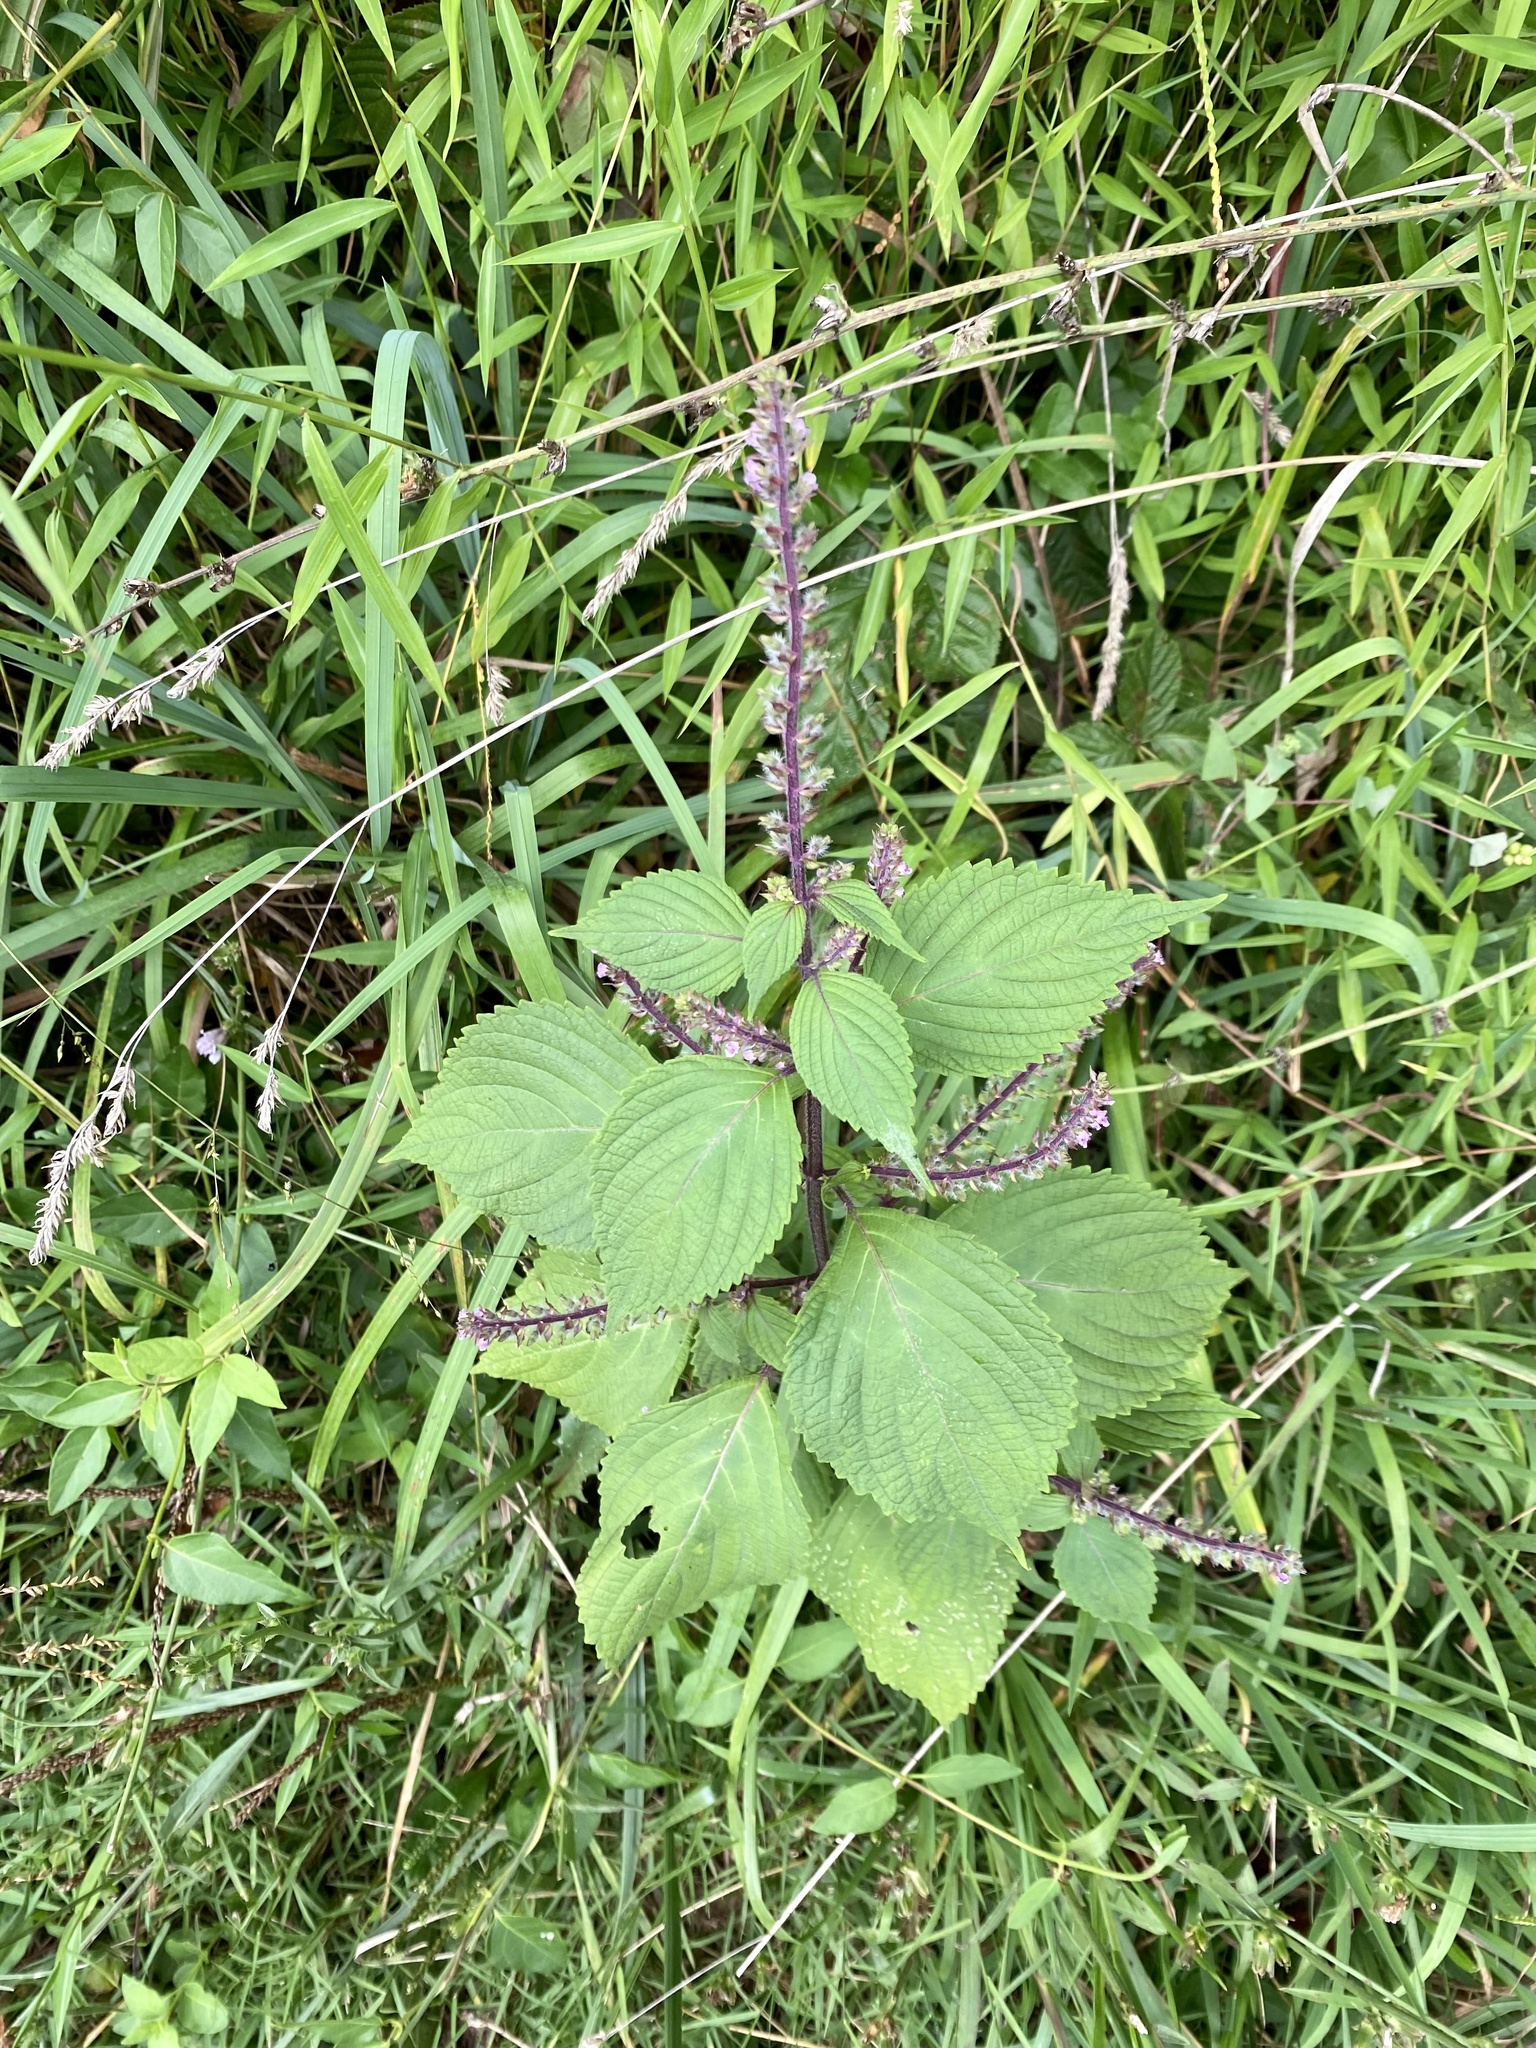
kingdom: Plantae
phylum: Tracheophyta
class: Magnoliopsida
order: Lamiales
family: Lamiaceae
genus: Perilla
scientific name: Perilla frutescens
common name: Perilla
